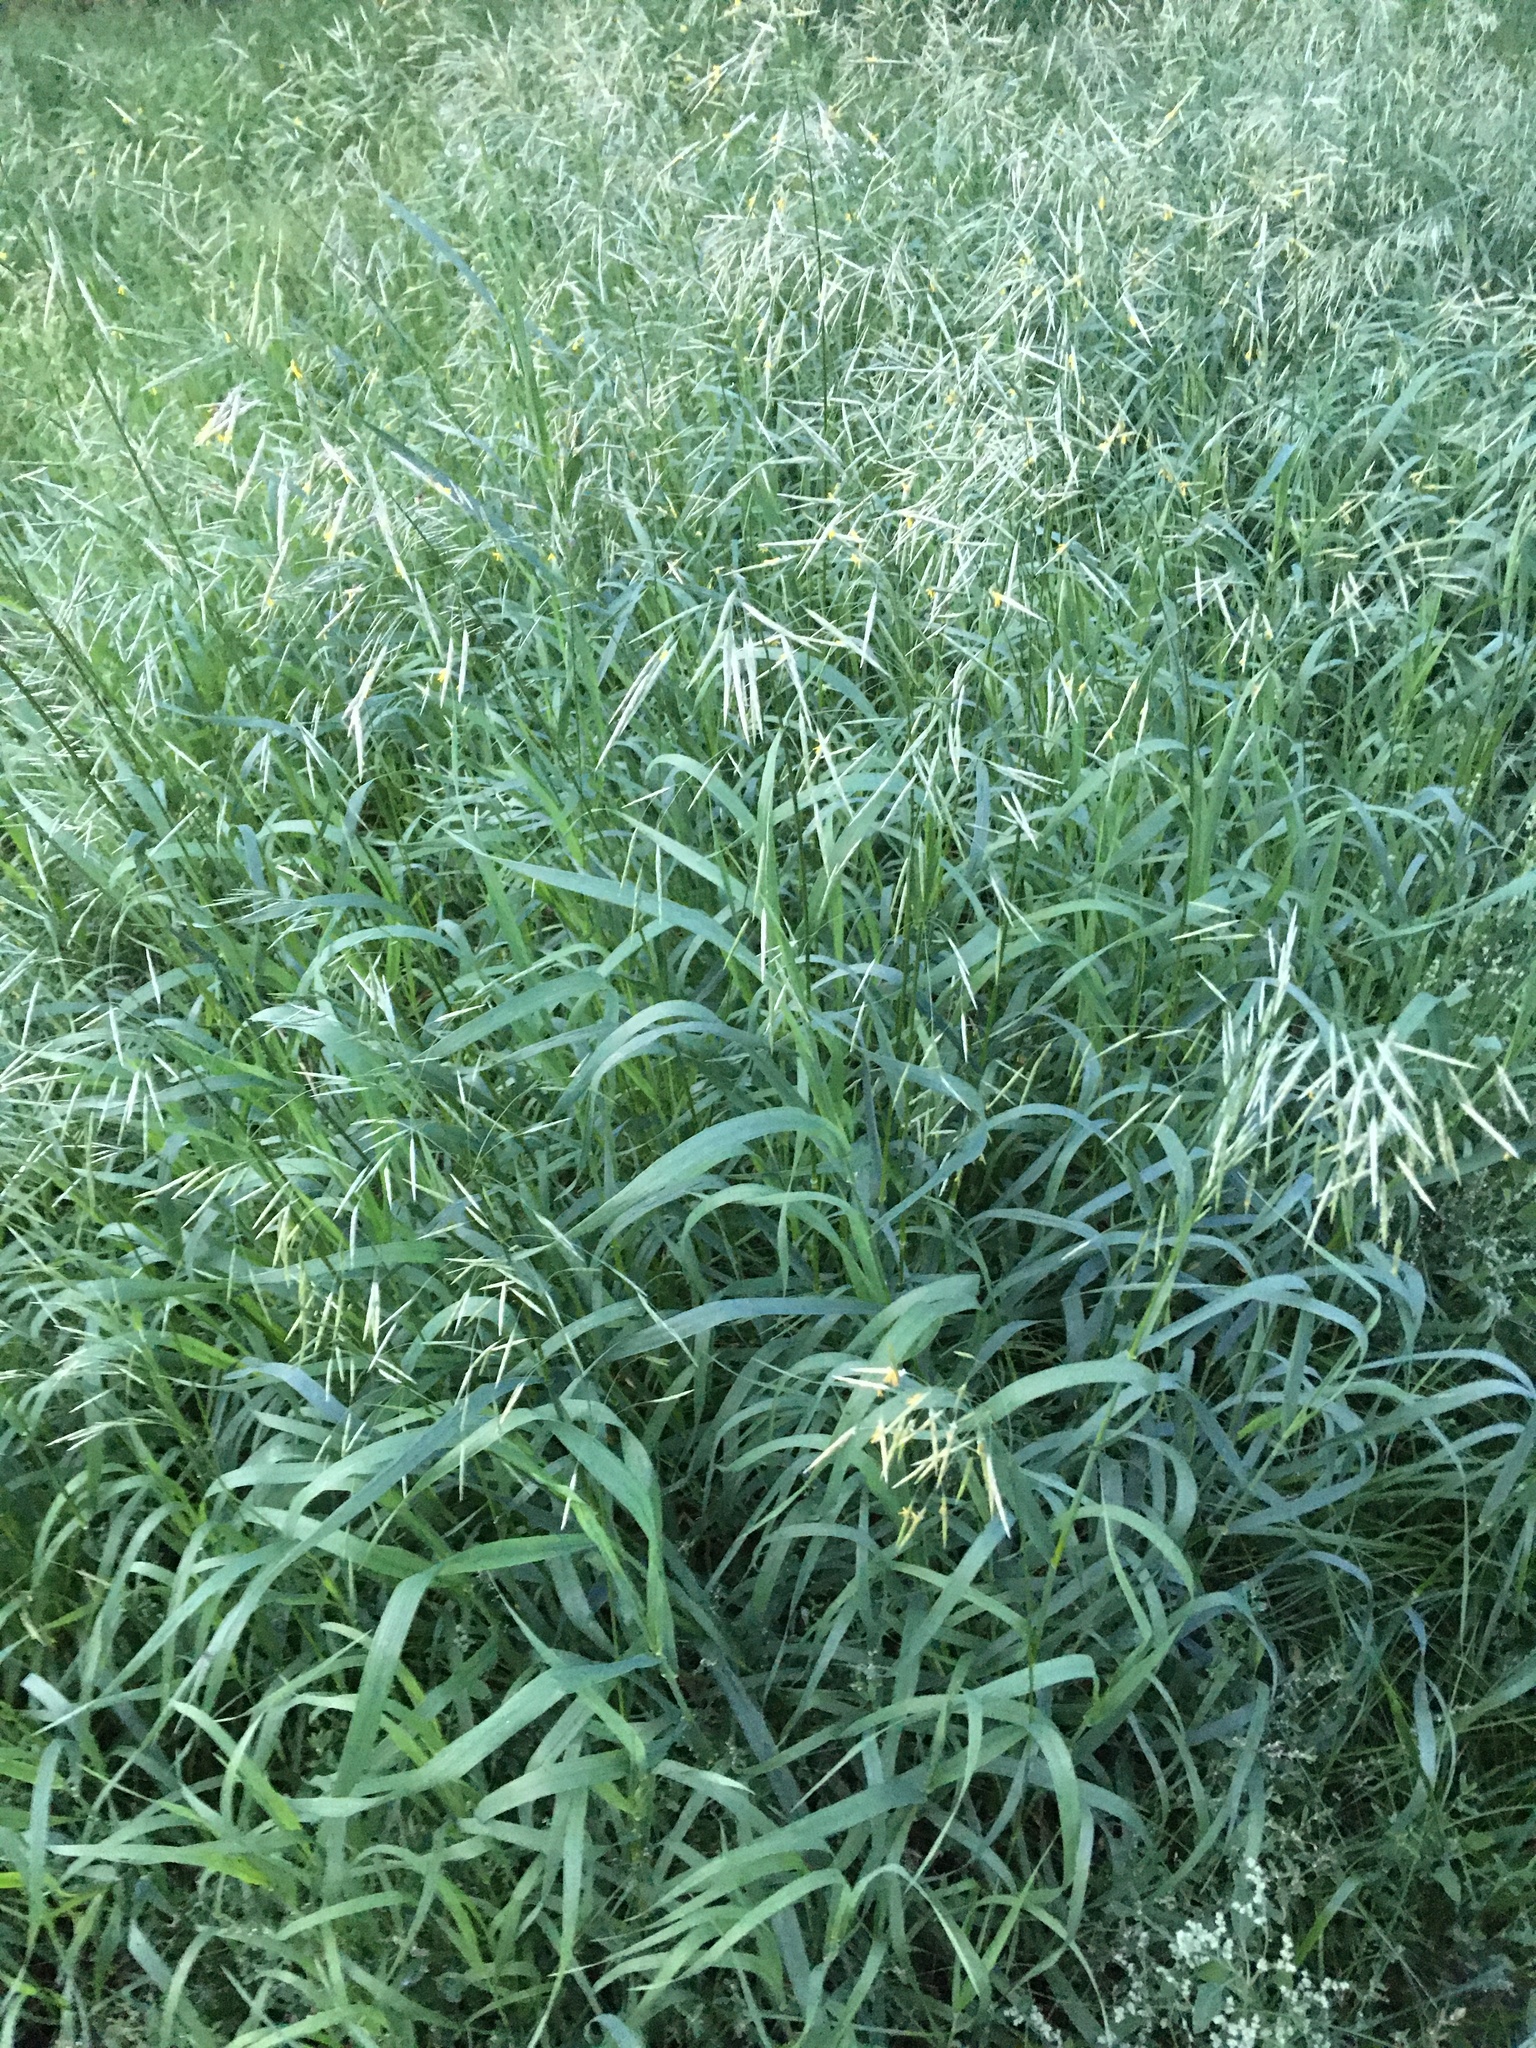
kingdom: Plantae
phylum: Tracheophyta
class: Liliopsida
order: Poales
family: Poaceae
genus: Bromus
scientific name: Bromus inermis
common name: Smooth brome
